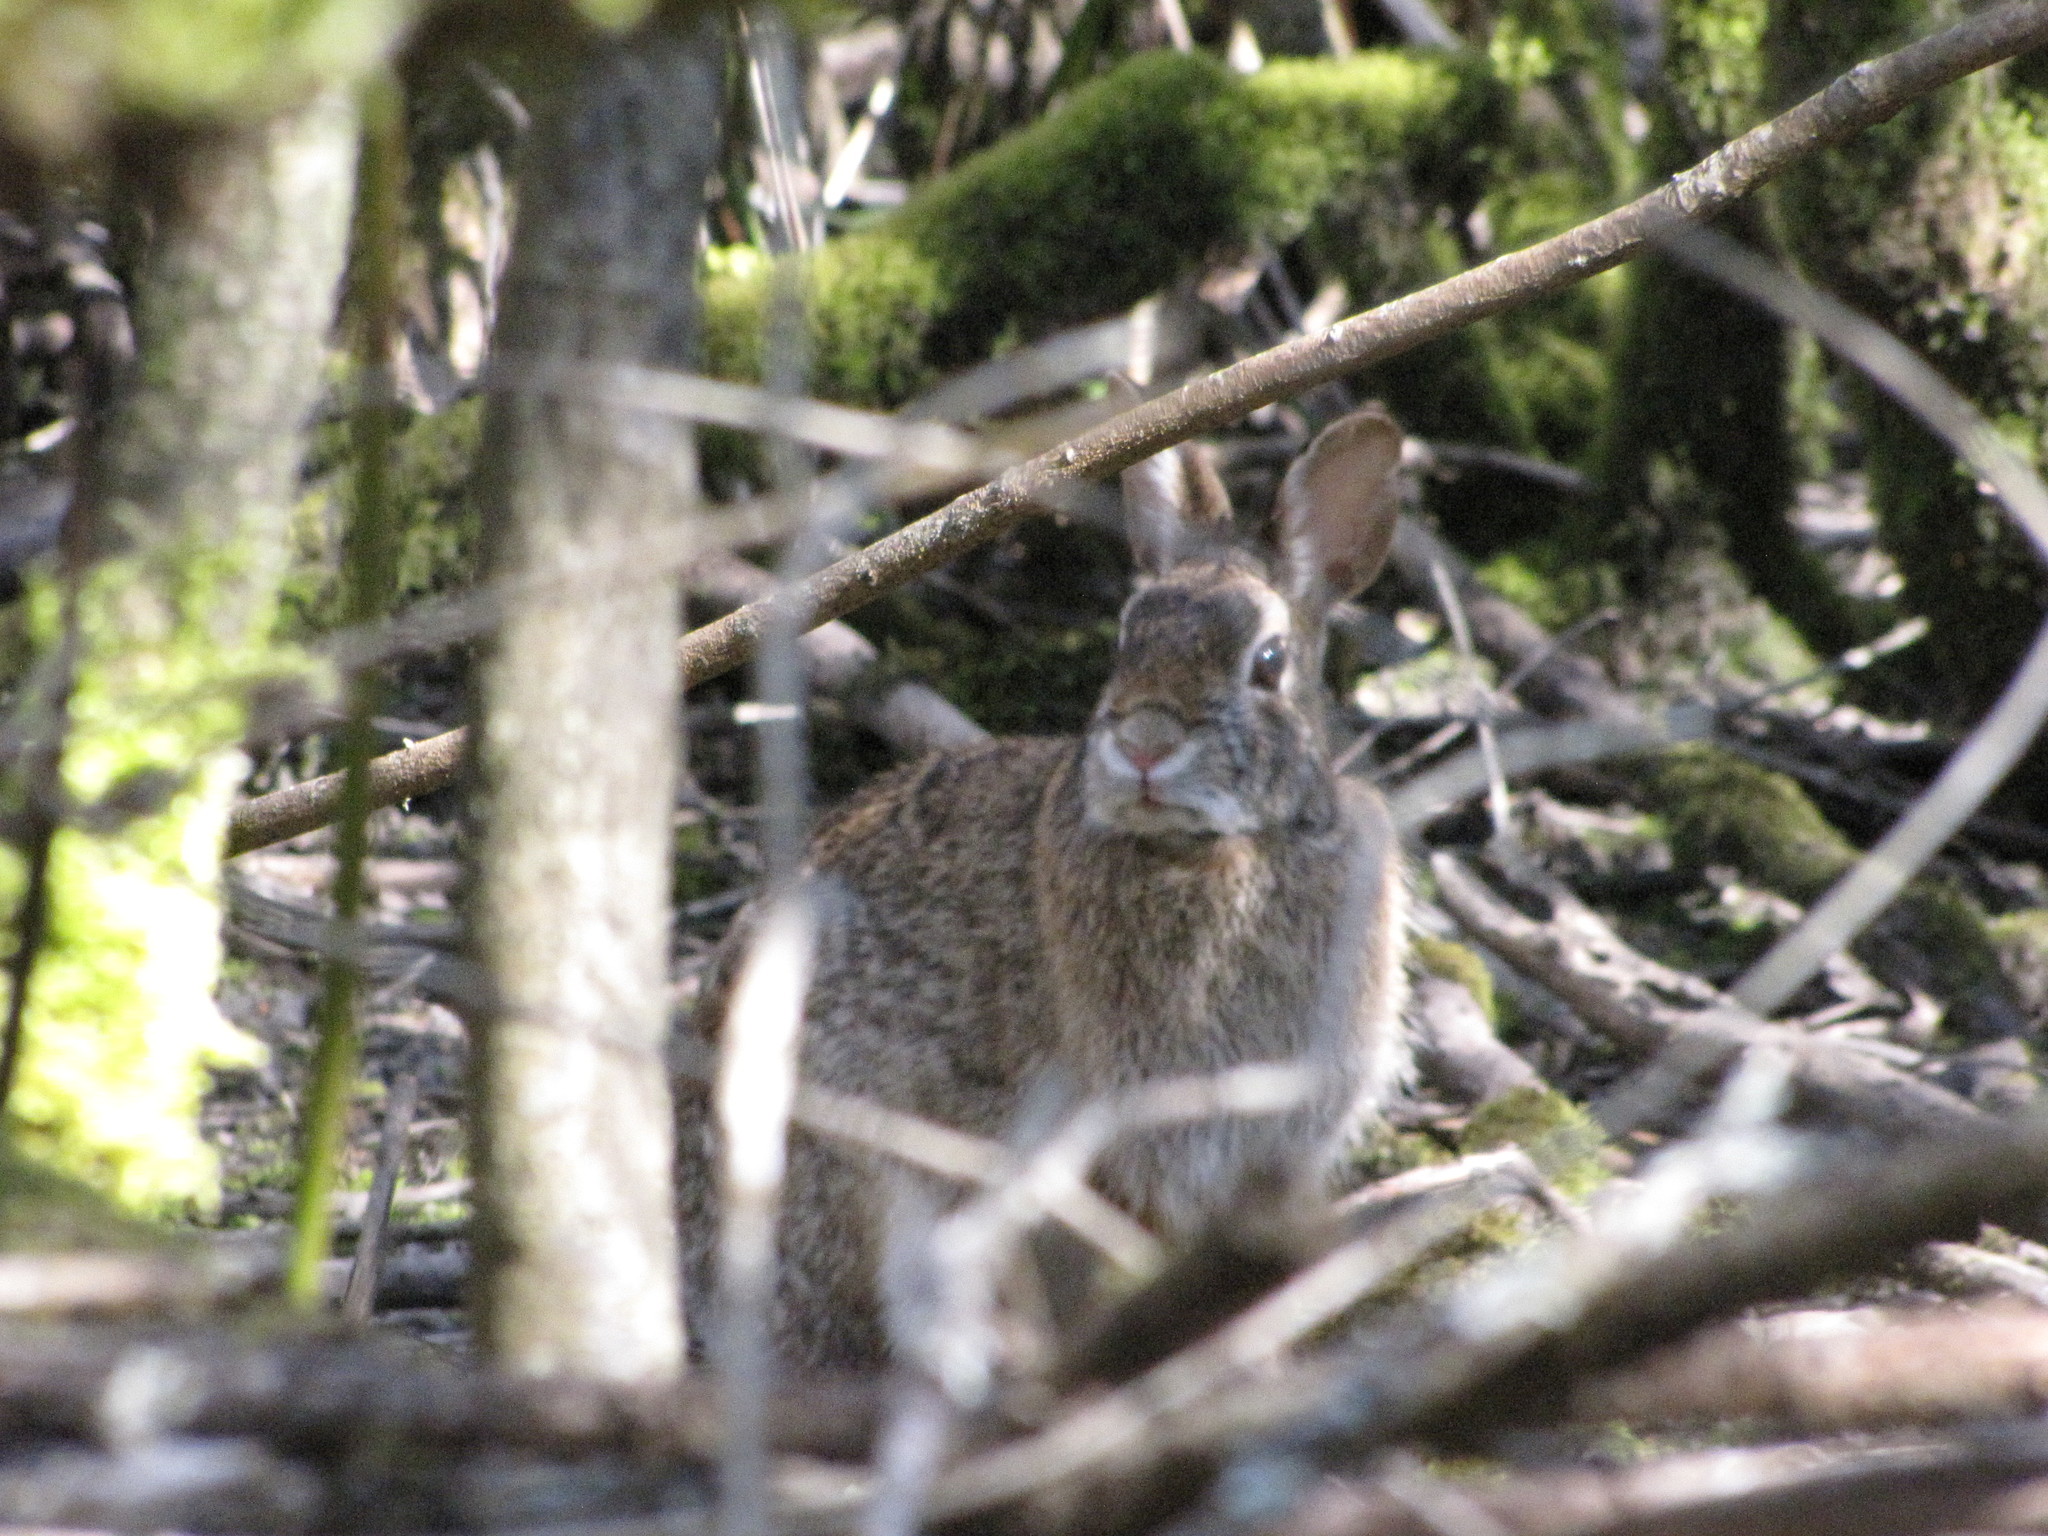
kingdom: Animalia
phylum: Chordata
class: Mammalia
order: Lagomorpha
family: Leporidae
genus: Sylvilagus
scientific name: Sylvilagus floridanus
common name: Eastern cottontail
